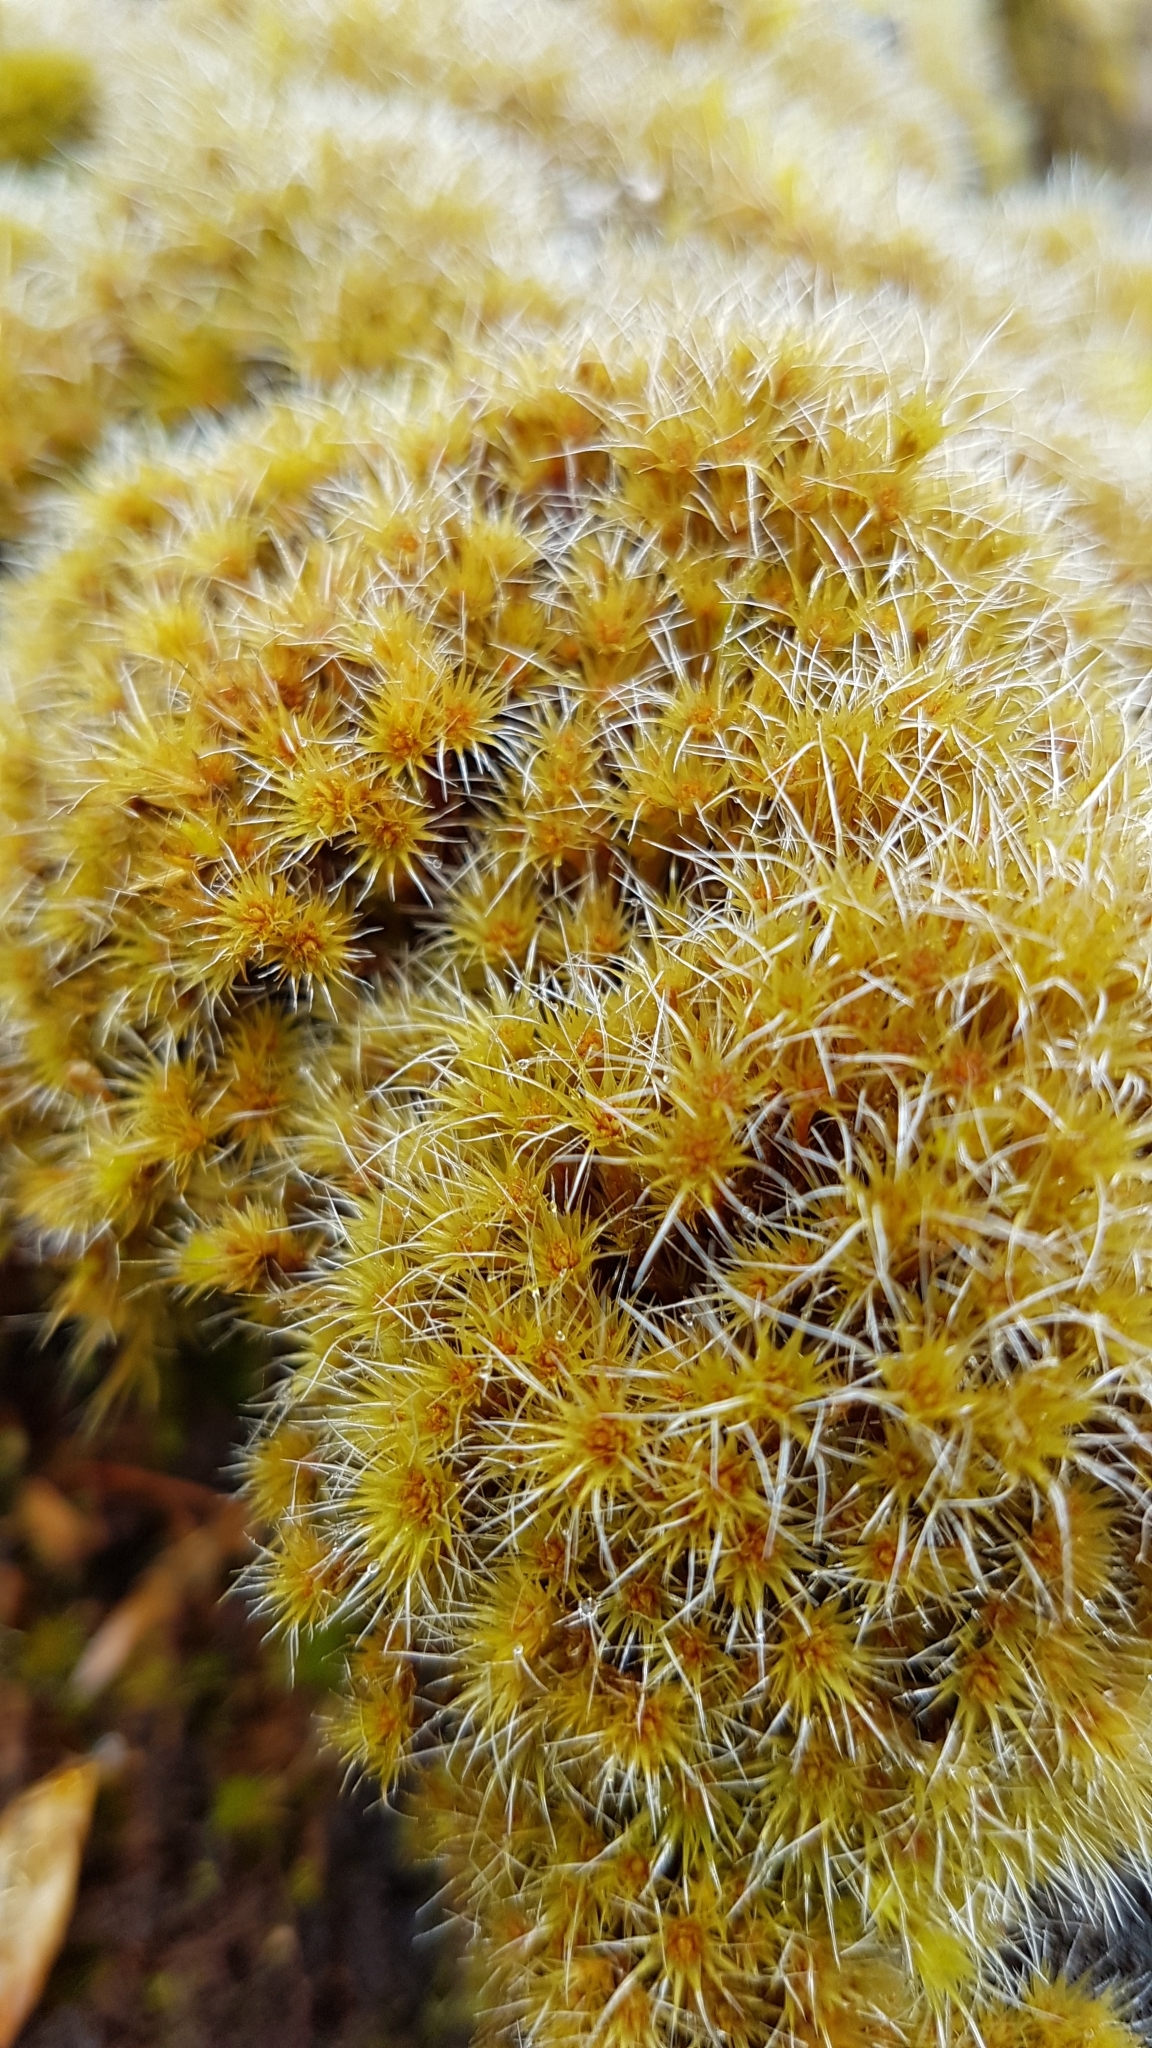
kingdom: Plantae
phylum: Bryophyta
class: Bryopsida
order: Dicranales
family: Leucobryaceae
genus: Campylopus
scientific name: Campylopus introflexus
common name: Heath star moss
